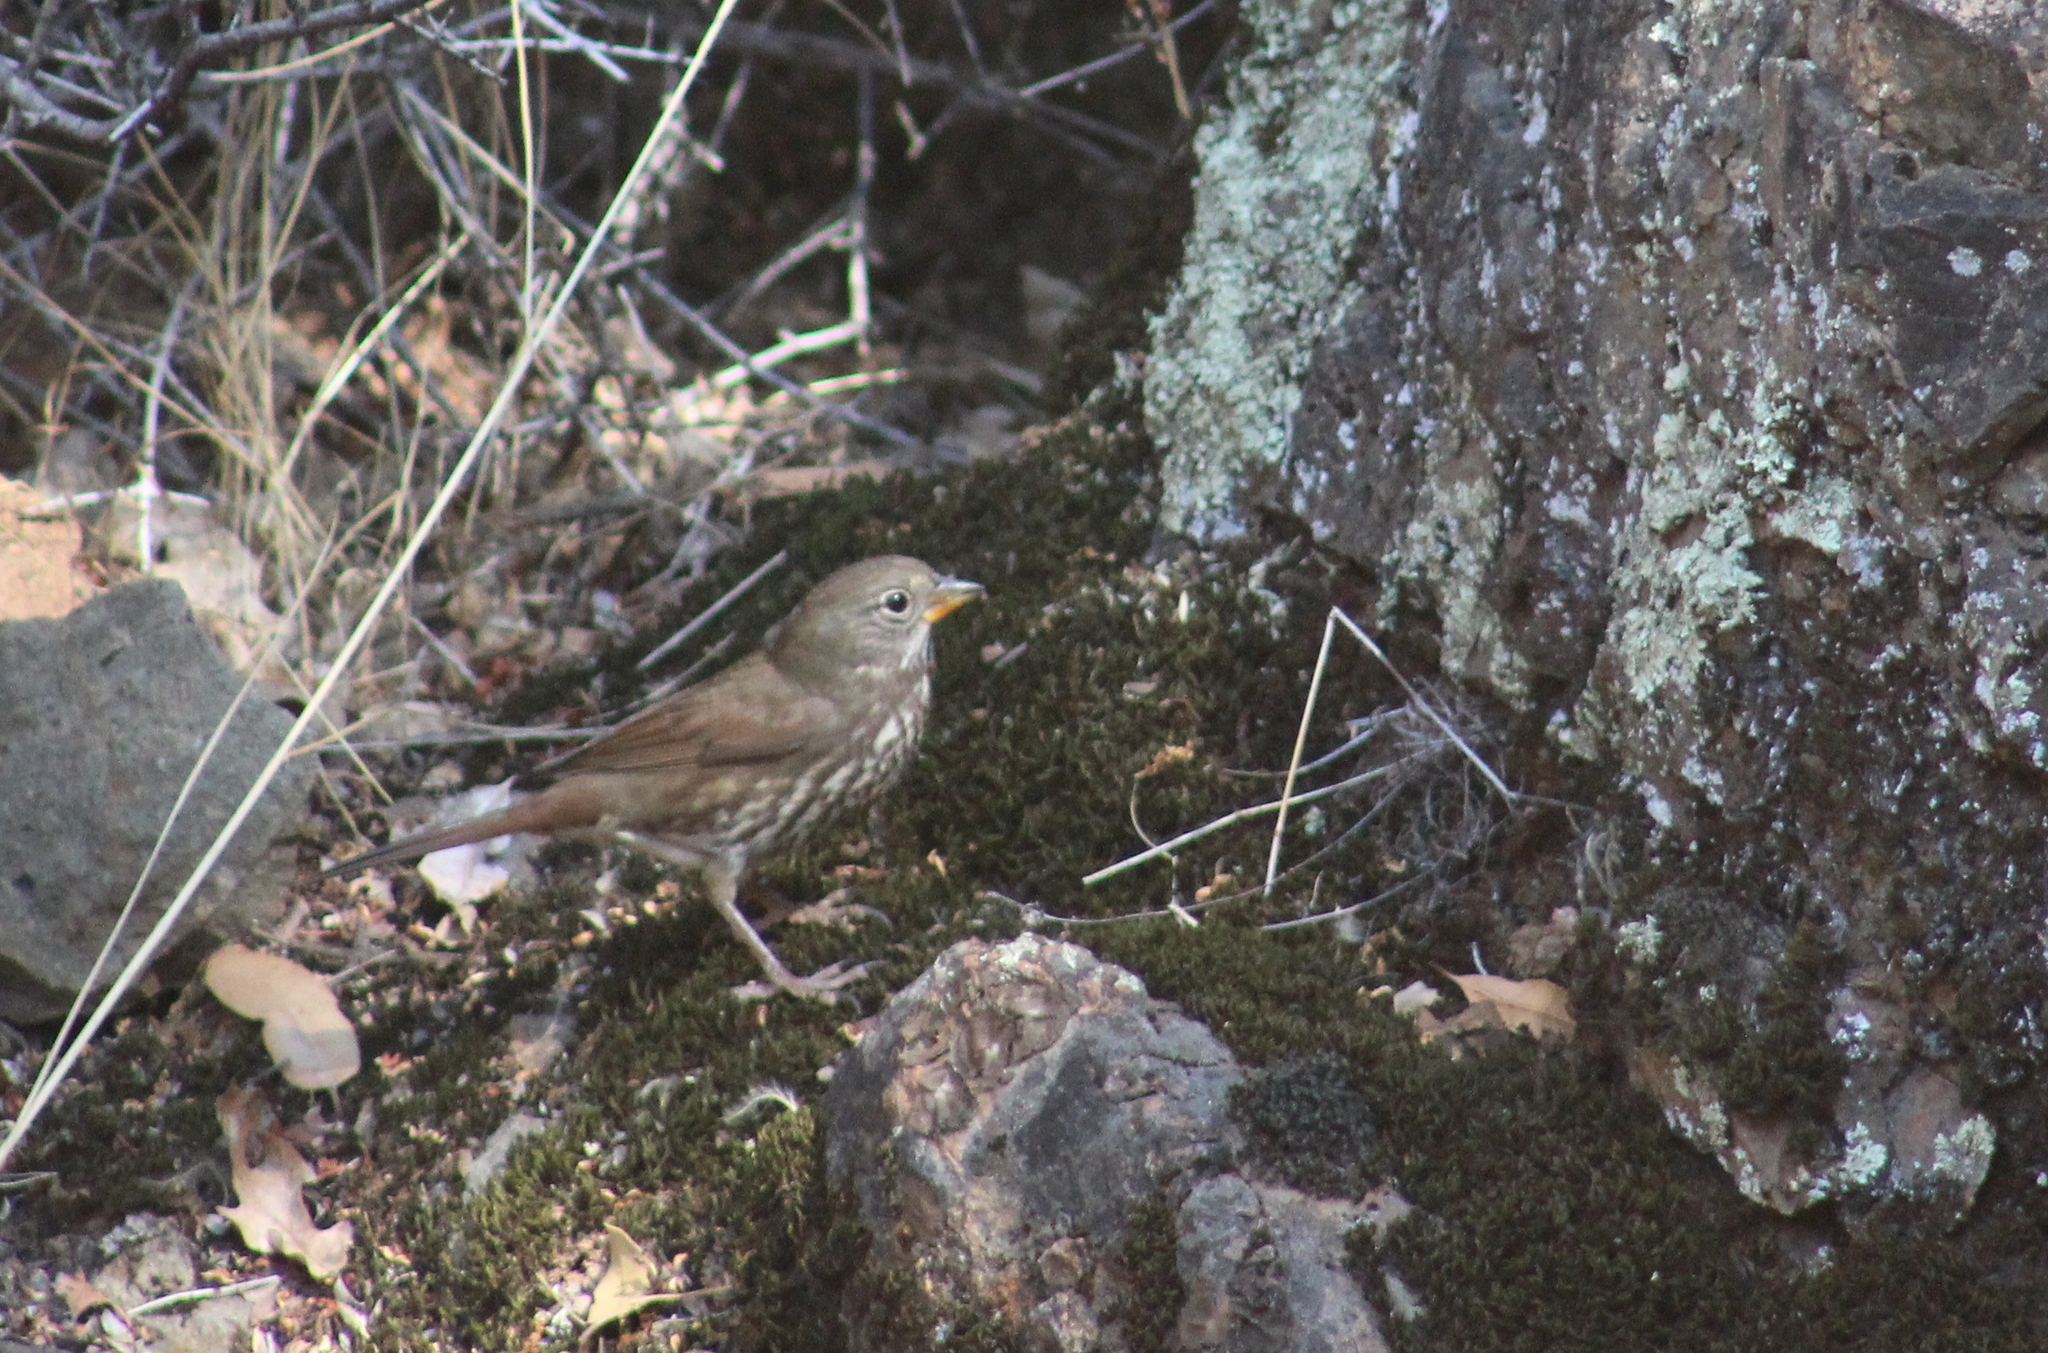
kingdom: Animalia
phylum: Chordata
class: Aves
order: Passeriformes
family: Passerellidae
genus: Passerella
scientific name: Passerella iliaca
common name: Fox sparrow
